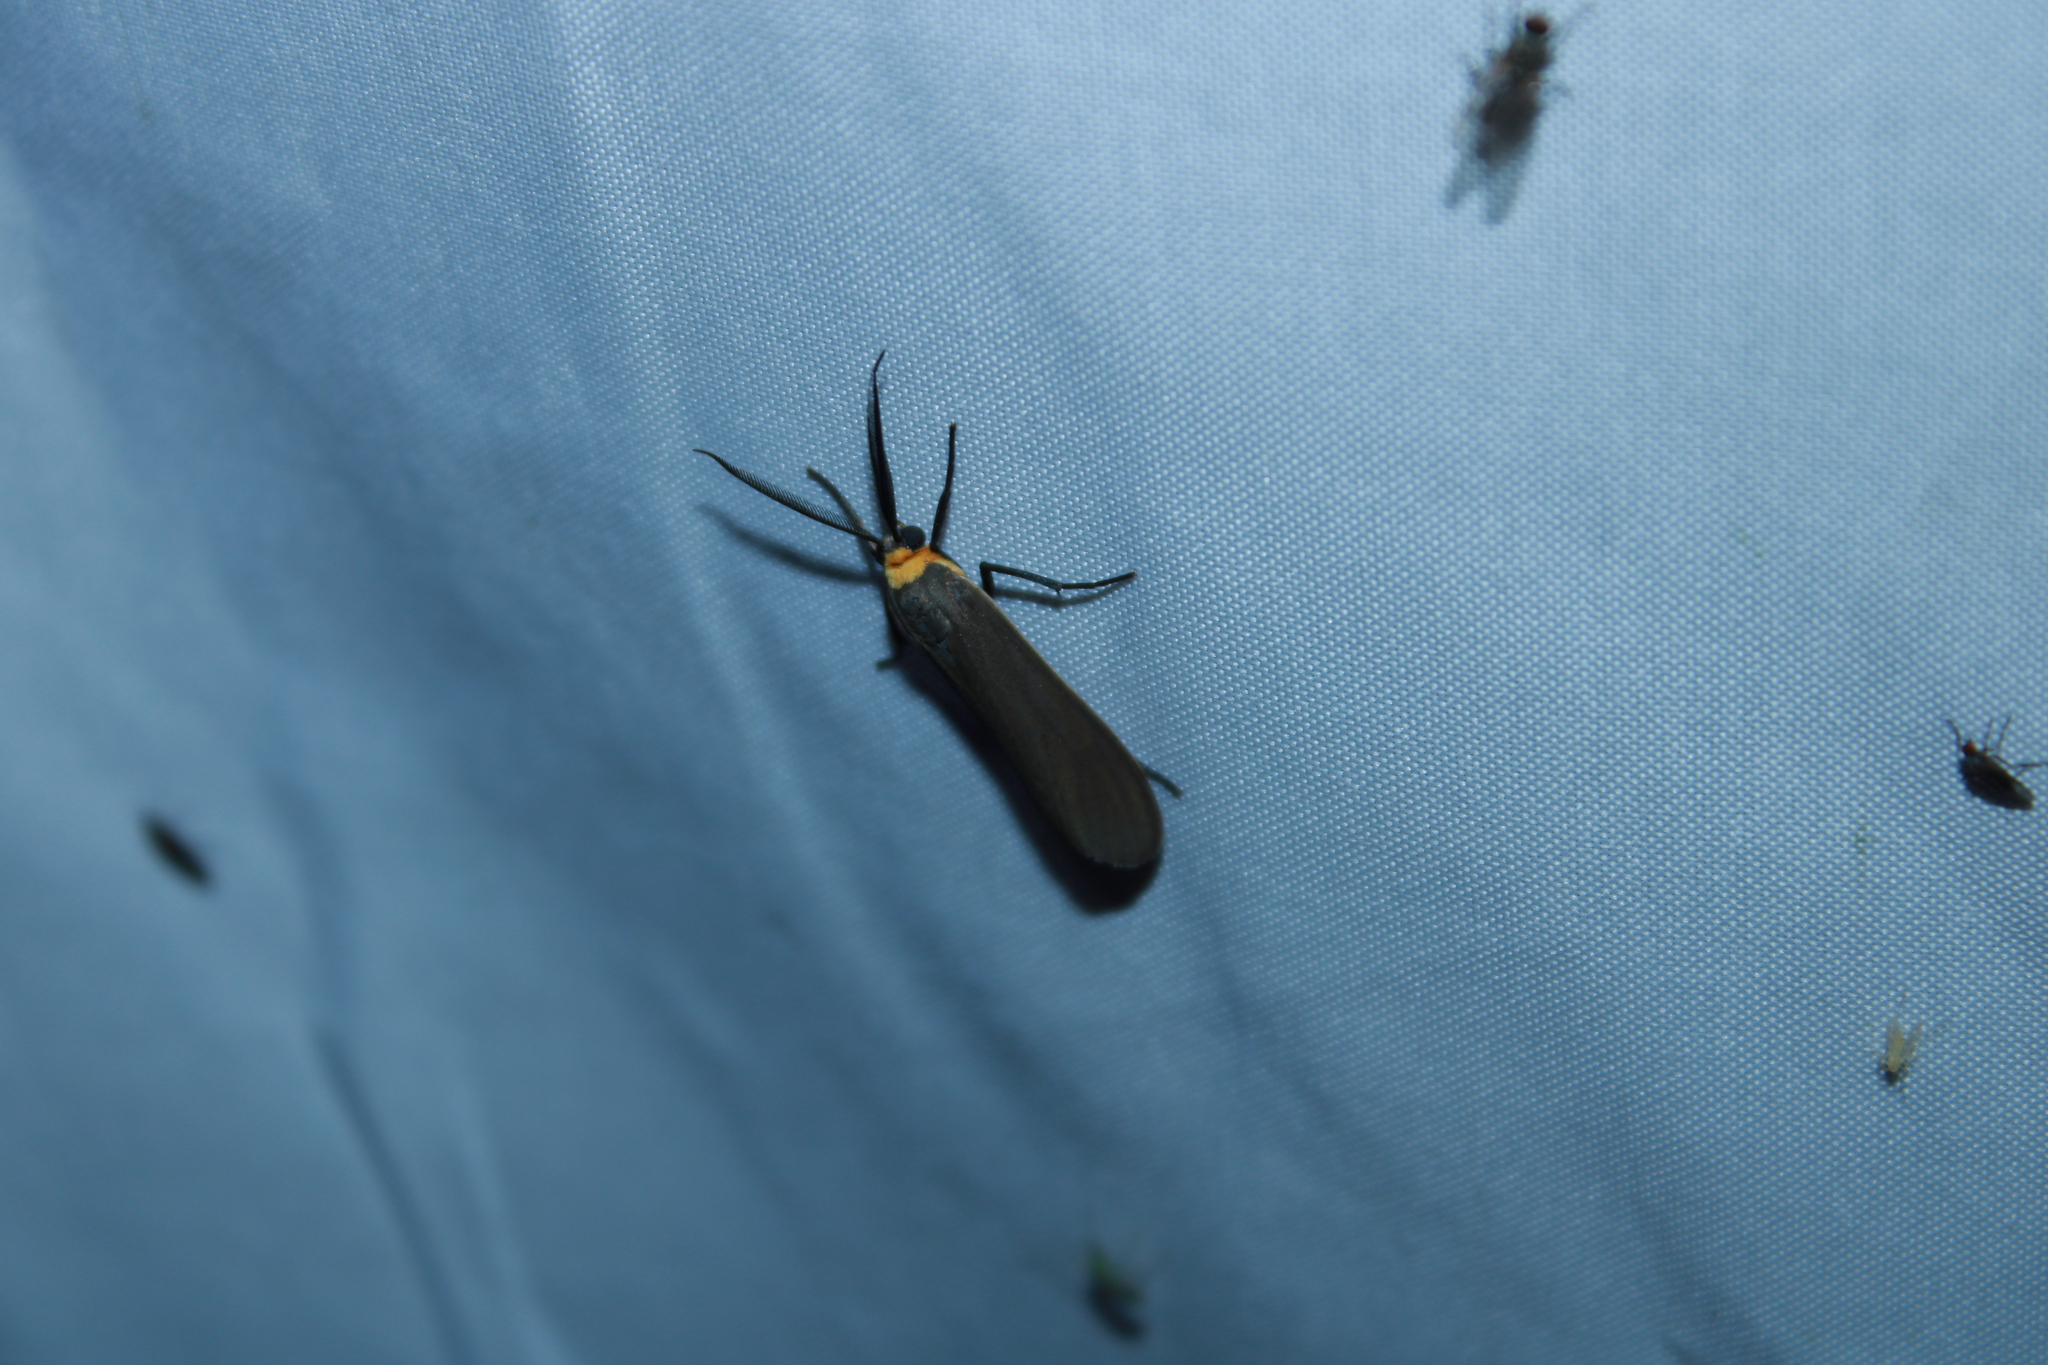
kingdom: Animalia
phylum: Arthropoda
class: Insecta
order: Lepidoptera
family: Erebidae
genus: Cisseps
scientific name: Cisseps fulvicollis
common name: Yellow-collared scape moth
